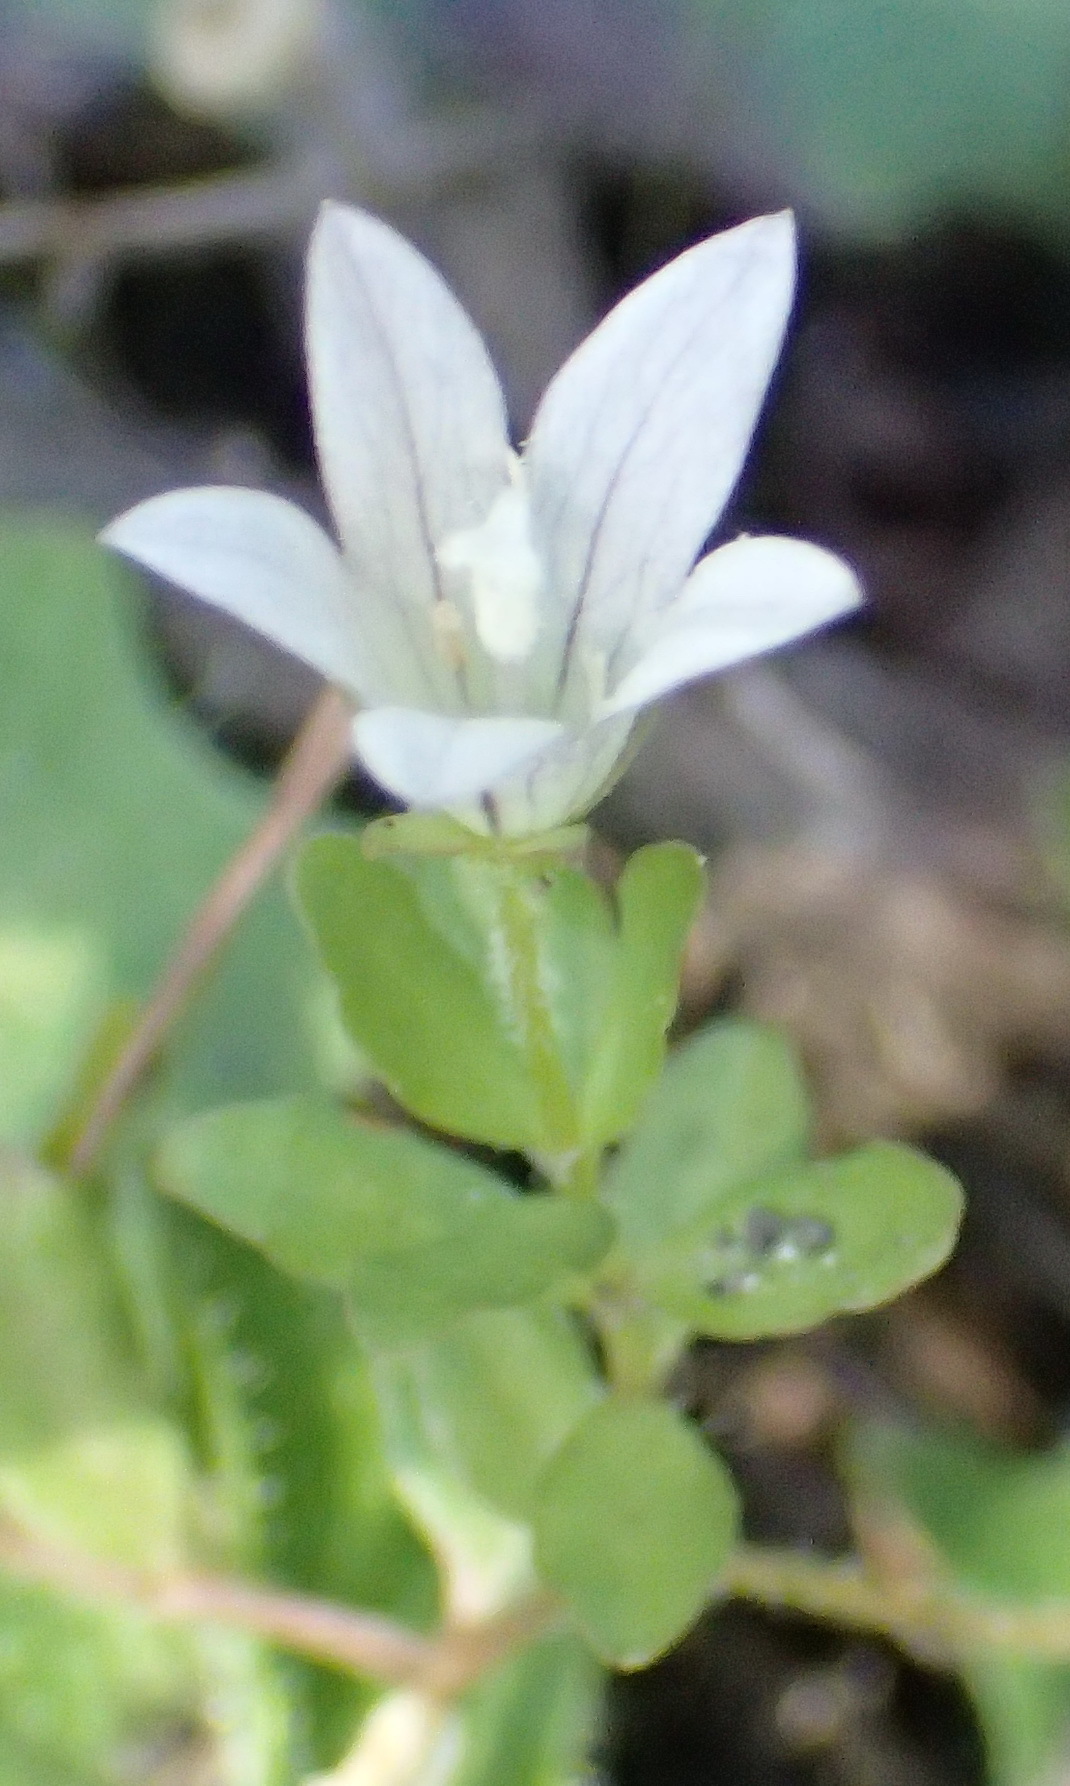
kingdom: Plantae
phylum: Tracheophyta
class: Magnoliopsida
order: Asterales
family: Campanulaceae
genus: Wahlenbergia
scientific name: Wahlenbergia procumbens
